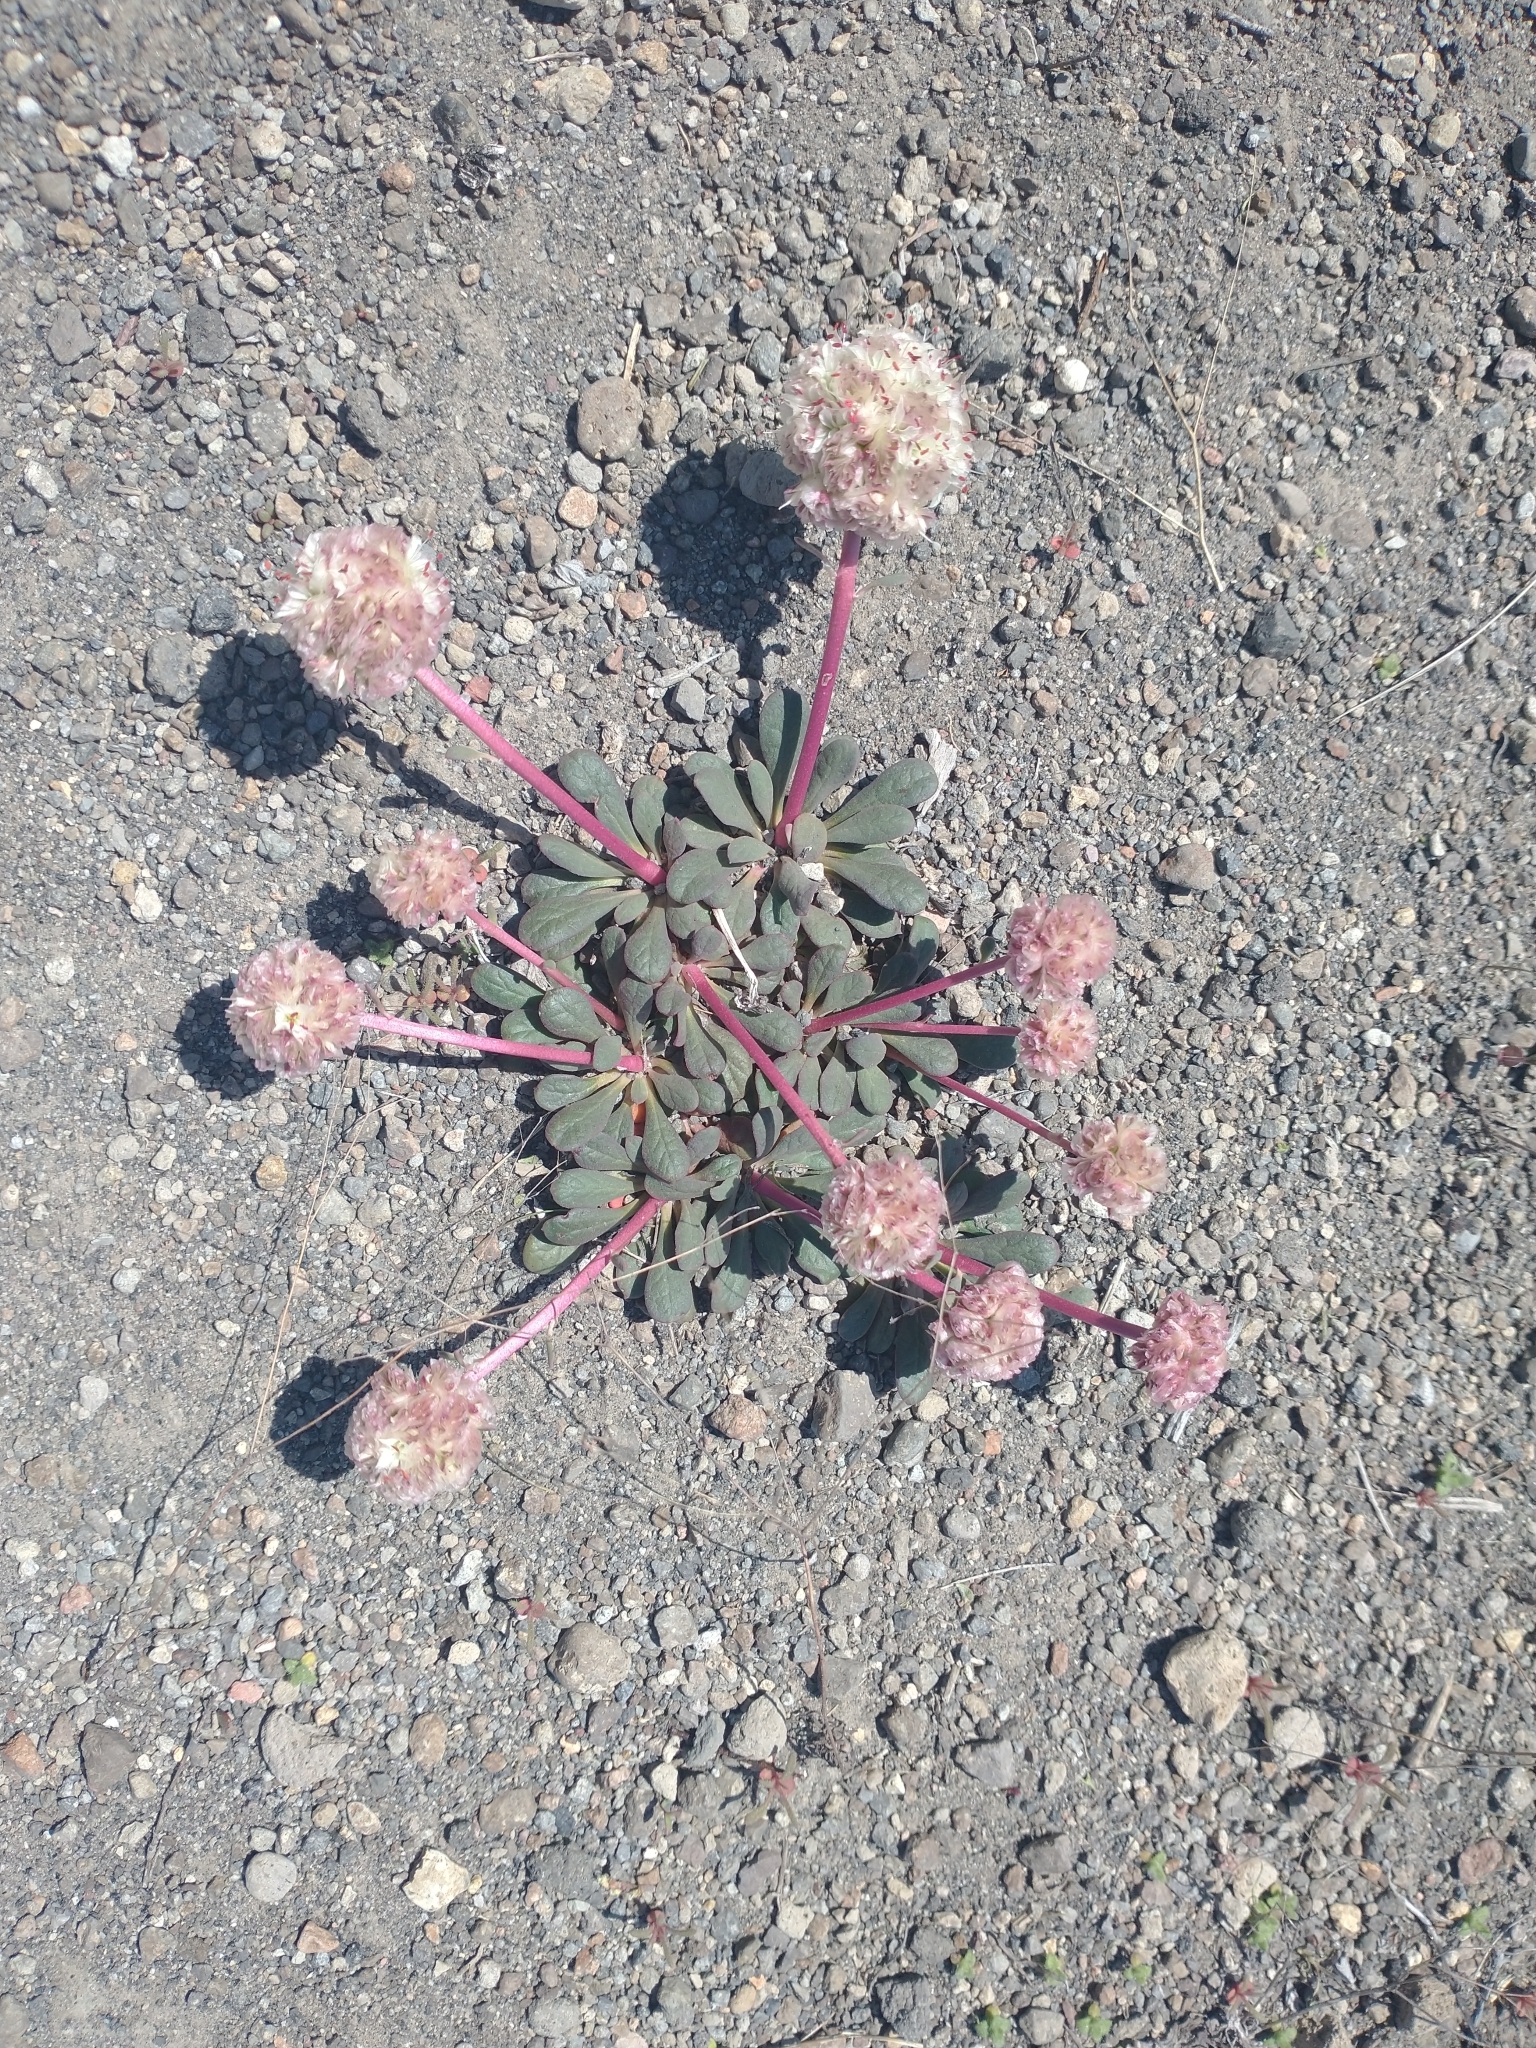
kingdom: Plantae
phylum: Tracheophyta
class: Magnoliopsida
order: Caryophyllales
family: Montiaceae
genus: Calyptridium
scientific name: Calyptridium umbellatum
